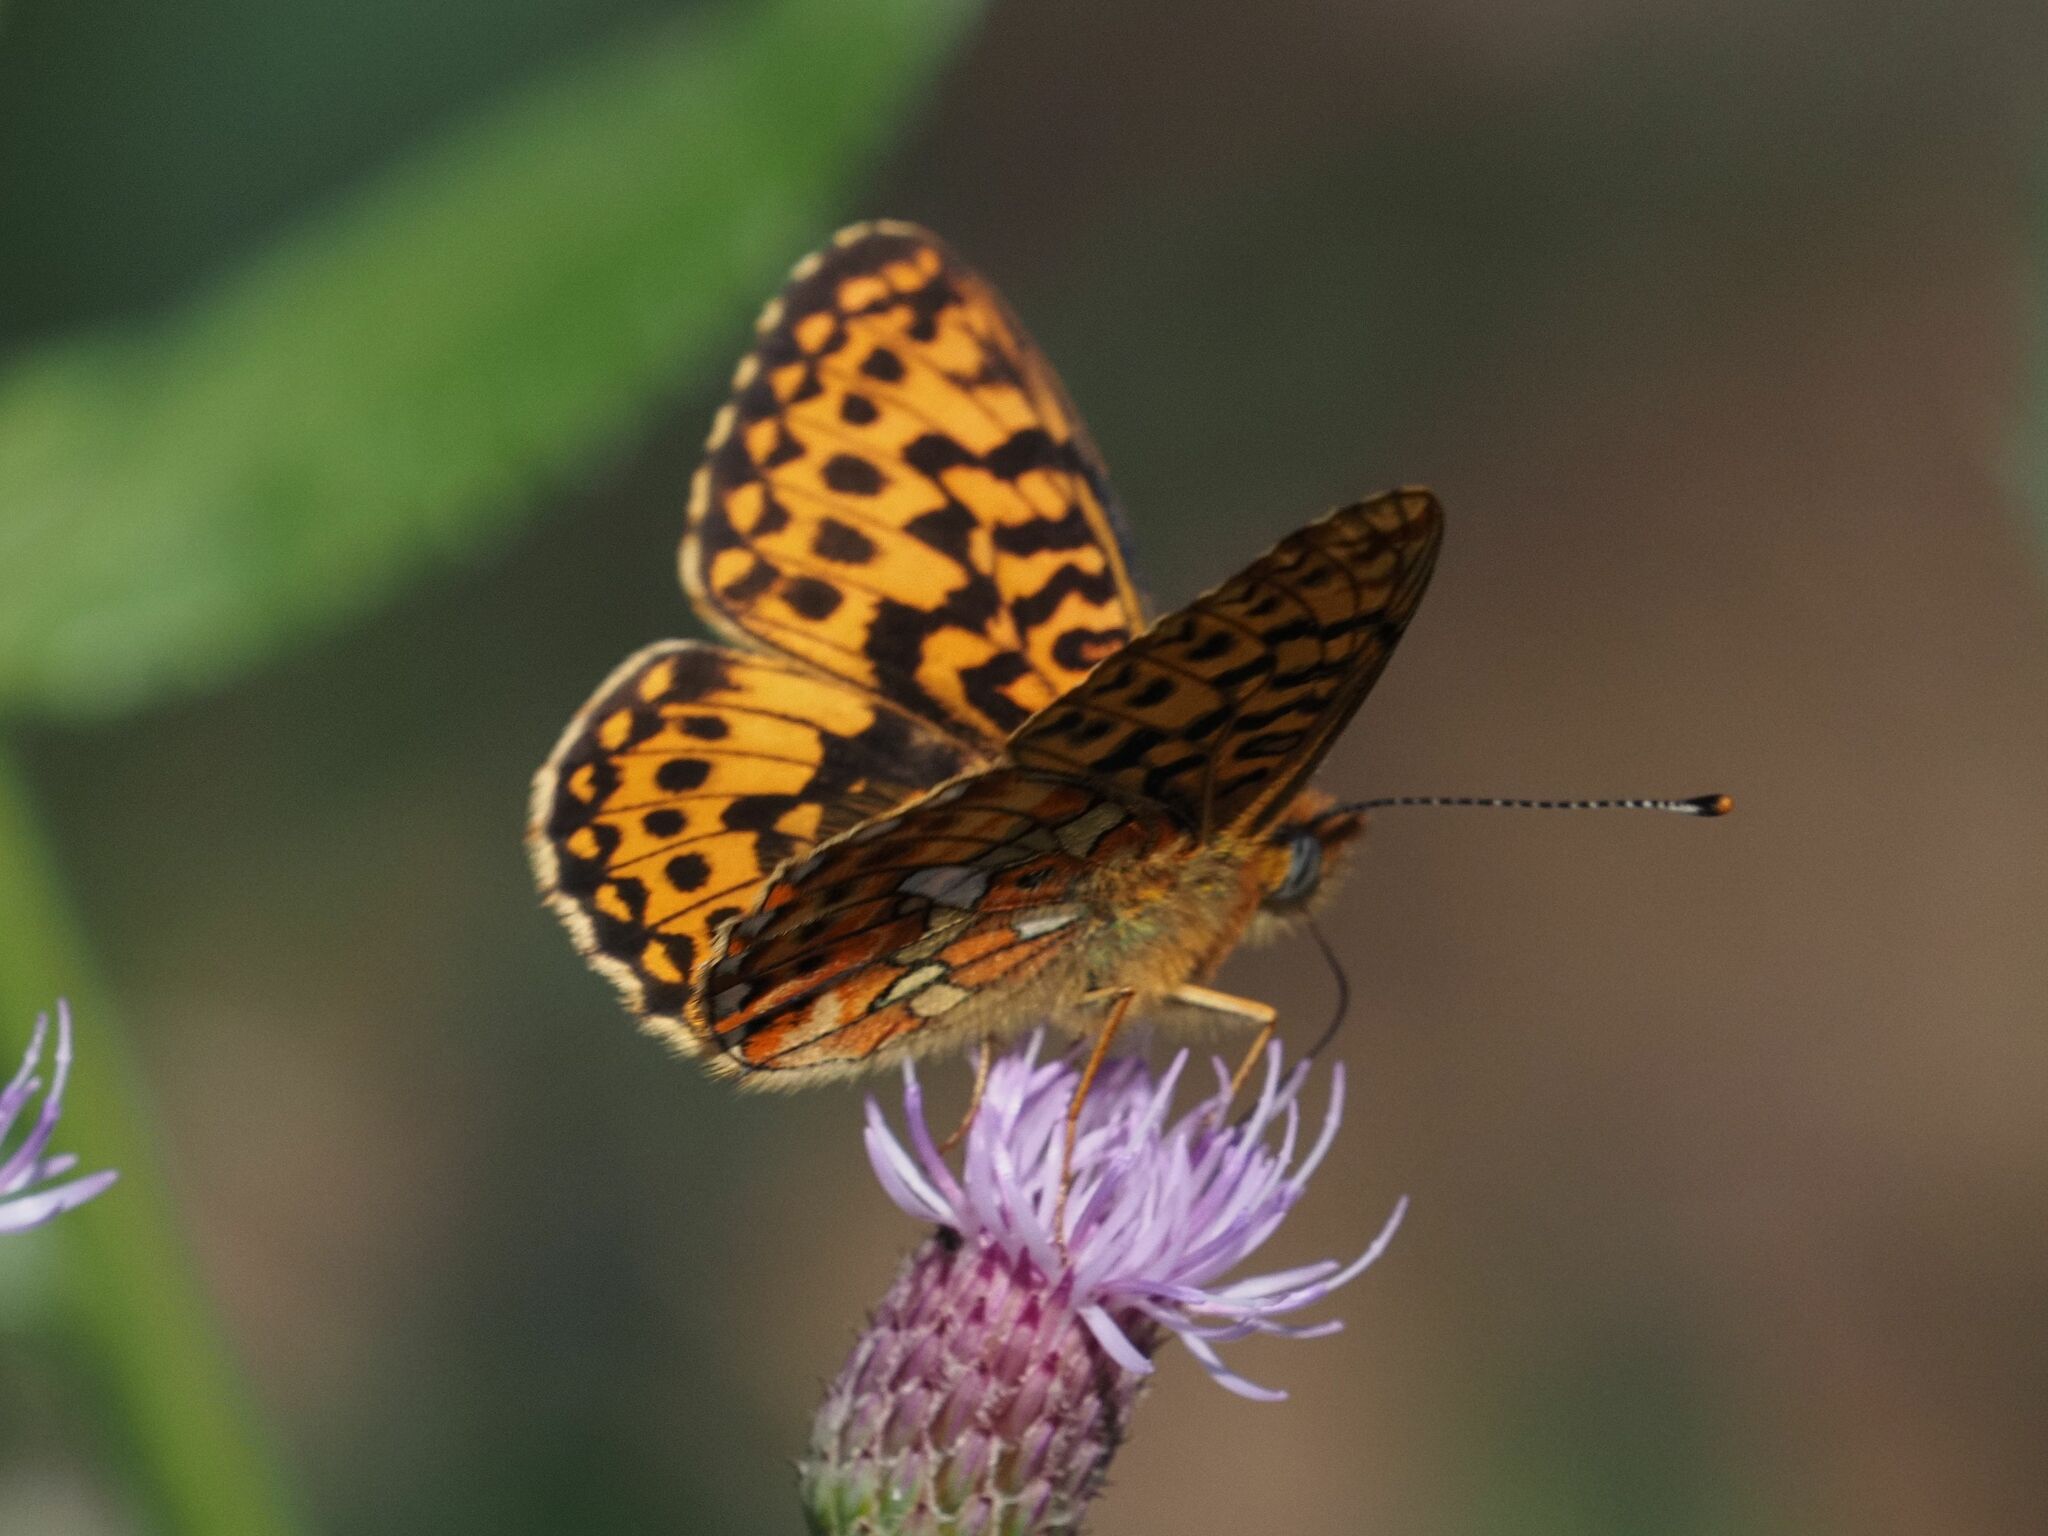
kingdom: Animalia
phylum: Arthropoda
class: Insecta
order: Lepidoptera
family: Nymphalidae
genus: Clossiana
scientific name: Clossiana euphrosyne
